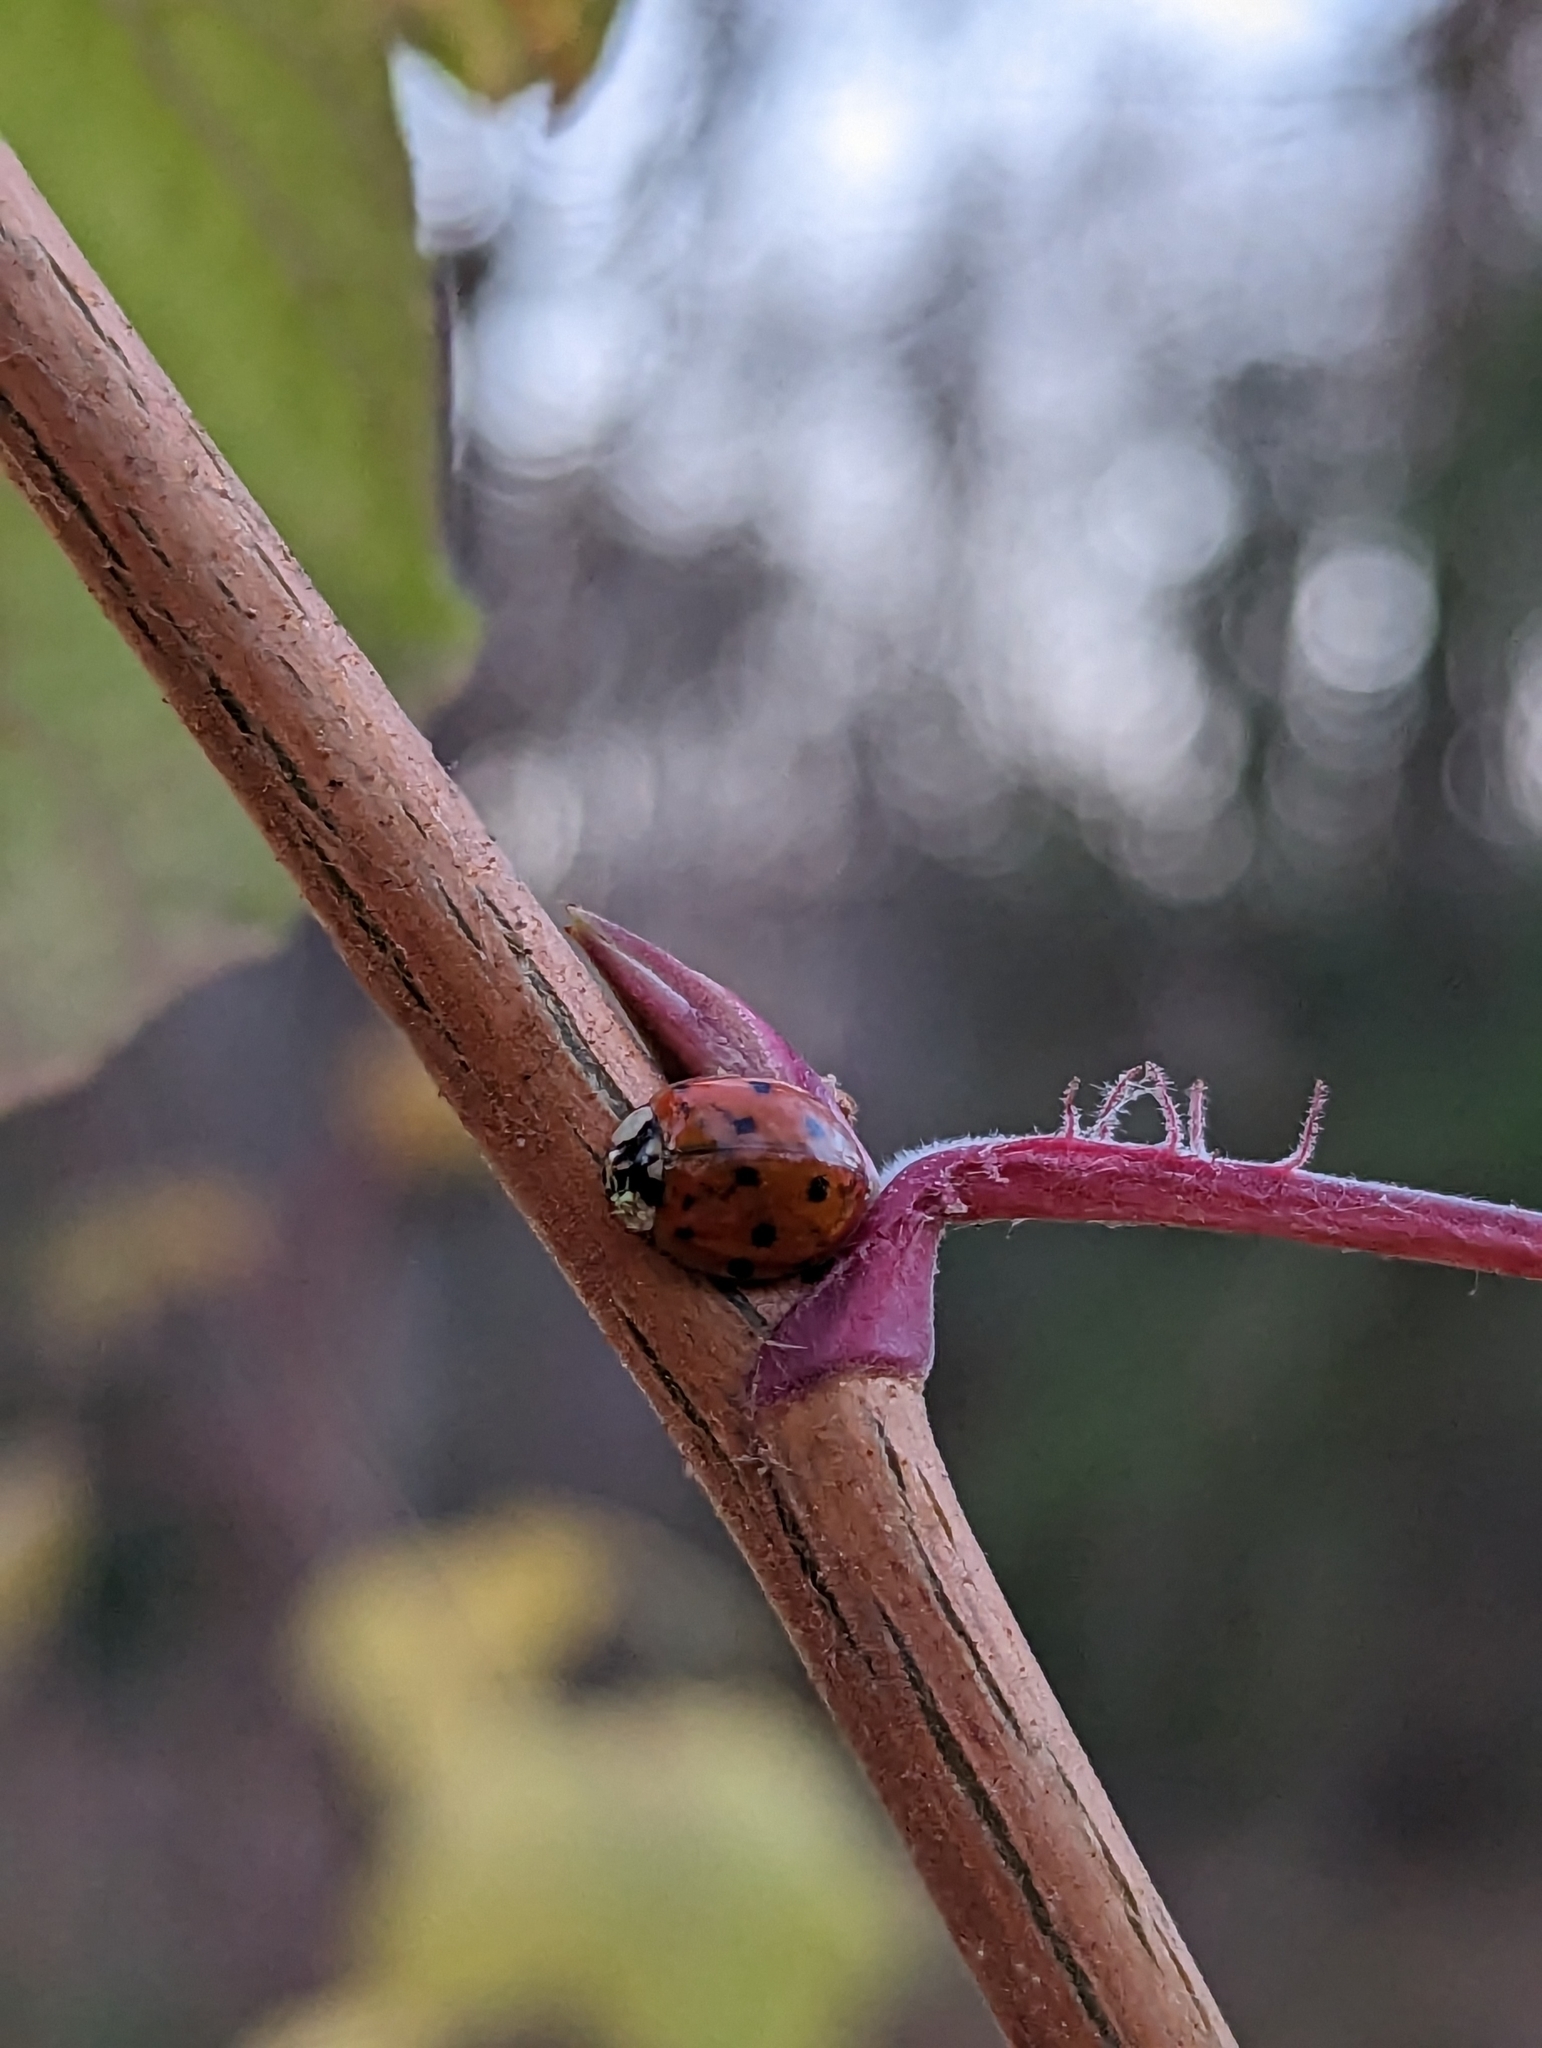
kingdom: Animalia
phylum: Arthropoda
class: Insecta
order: Coleoptera
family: Coccinellidae
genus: Harmonia
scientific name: Harmonia axyridis
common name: Harlequin ladybird
